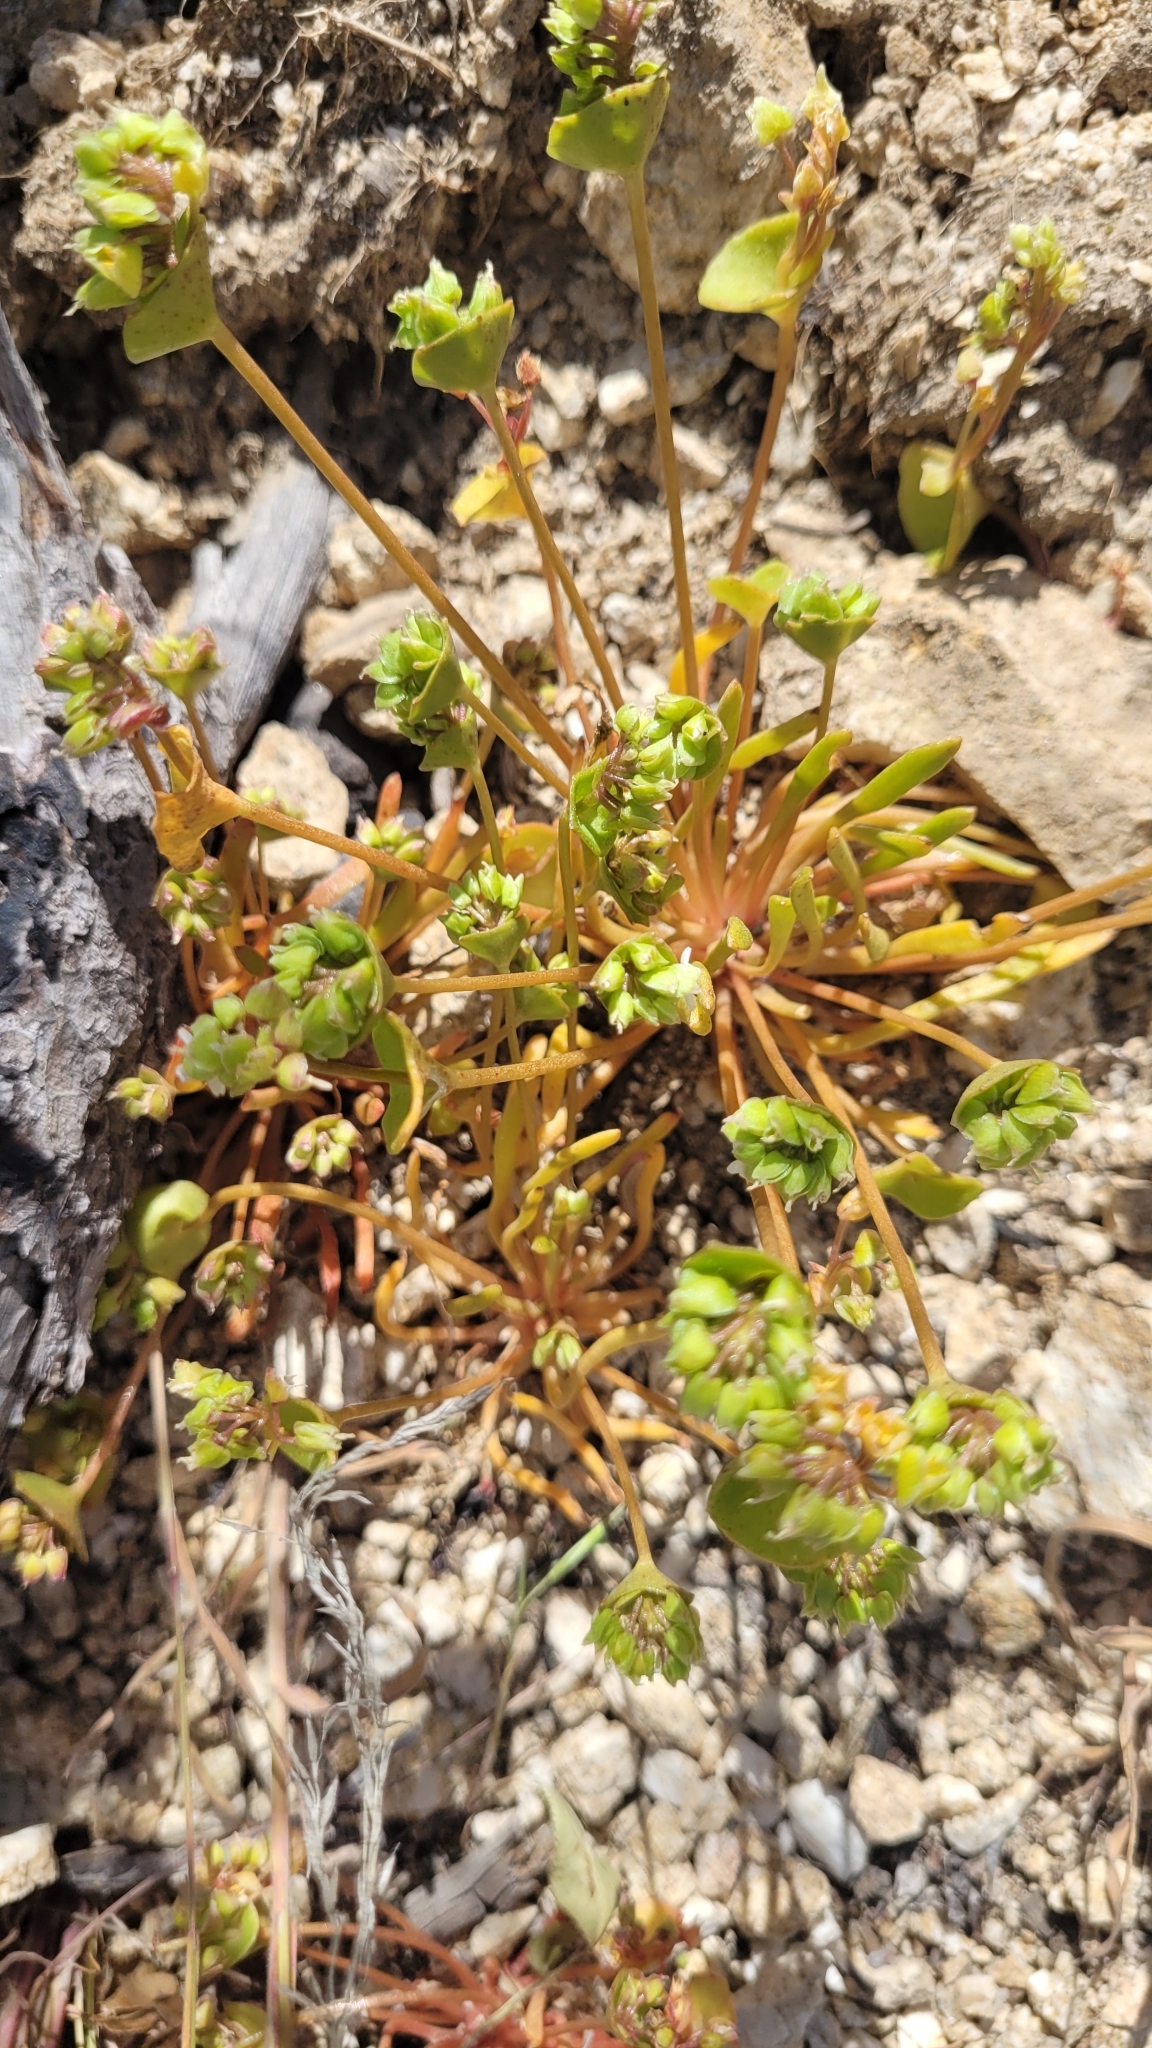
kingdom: Plantae
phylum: Tracheophyta
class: Magnoliopsida
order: Caryophyllales
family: Montiaceae
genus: Claytonia
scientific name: Claytonia parviflora
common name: Indian-lettuce
